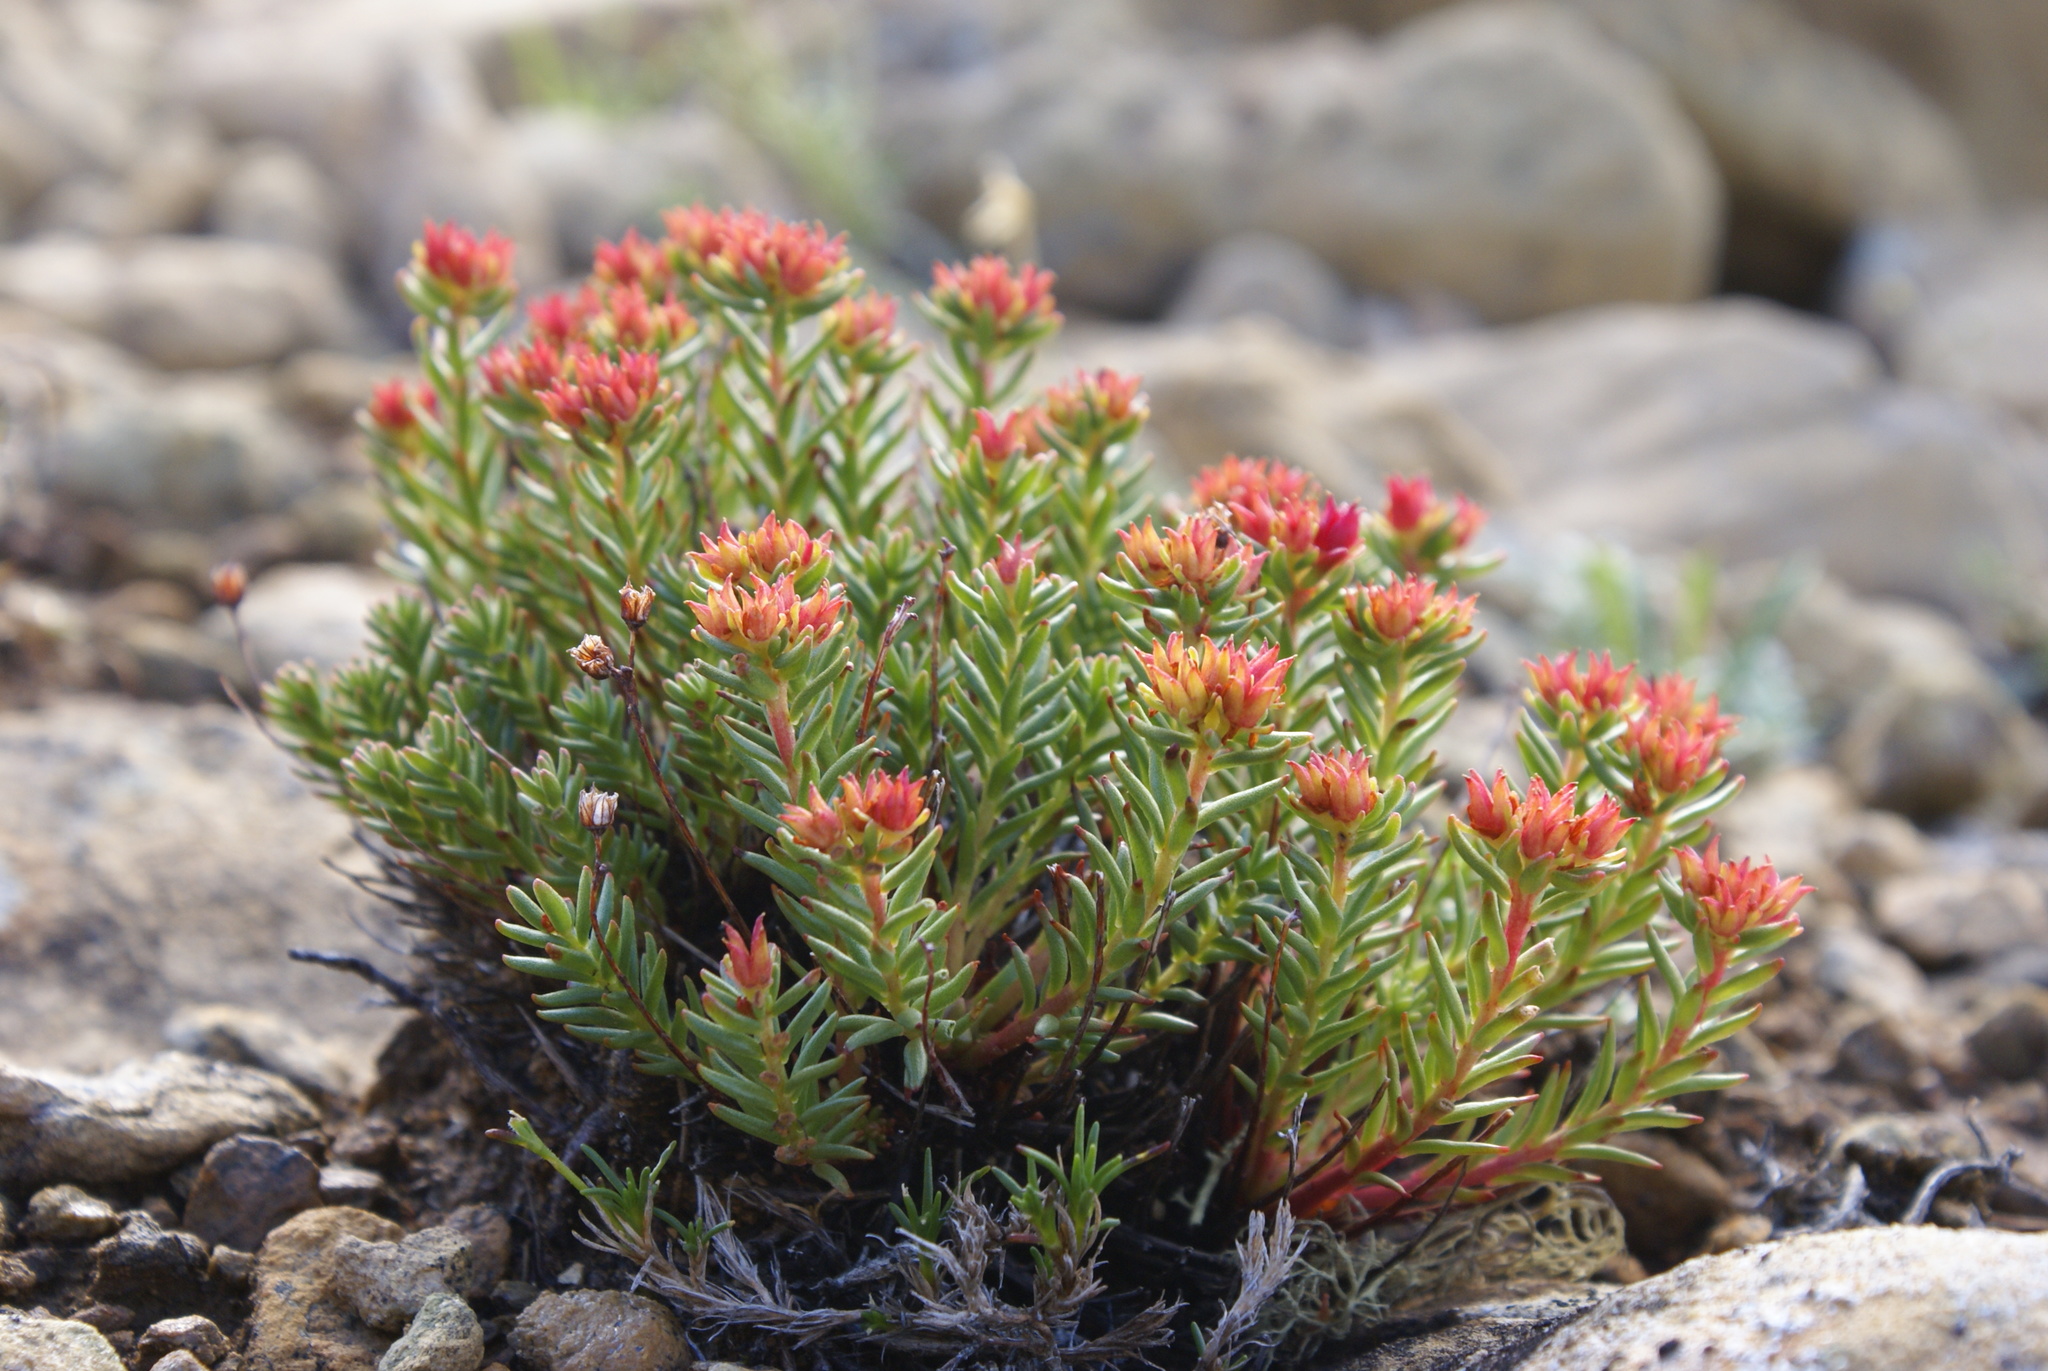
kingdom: Plantae
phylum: Tracheophyta
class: Magnoliopsida
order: Saxifragales
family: Crassulaceae
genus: Rhodiola
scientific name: Rhodiola quadrifida
